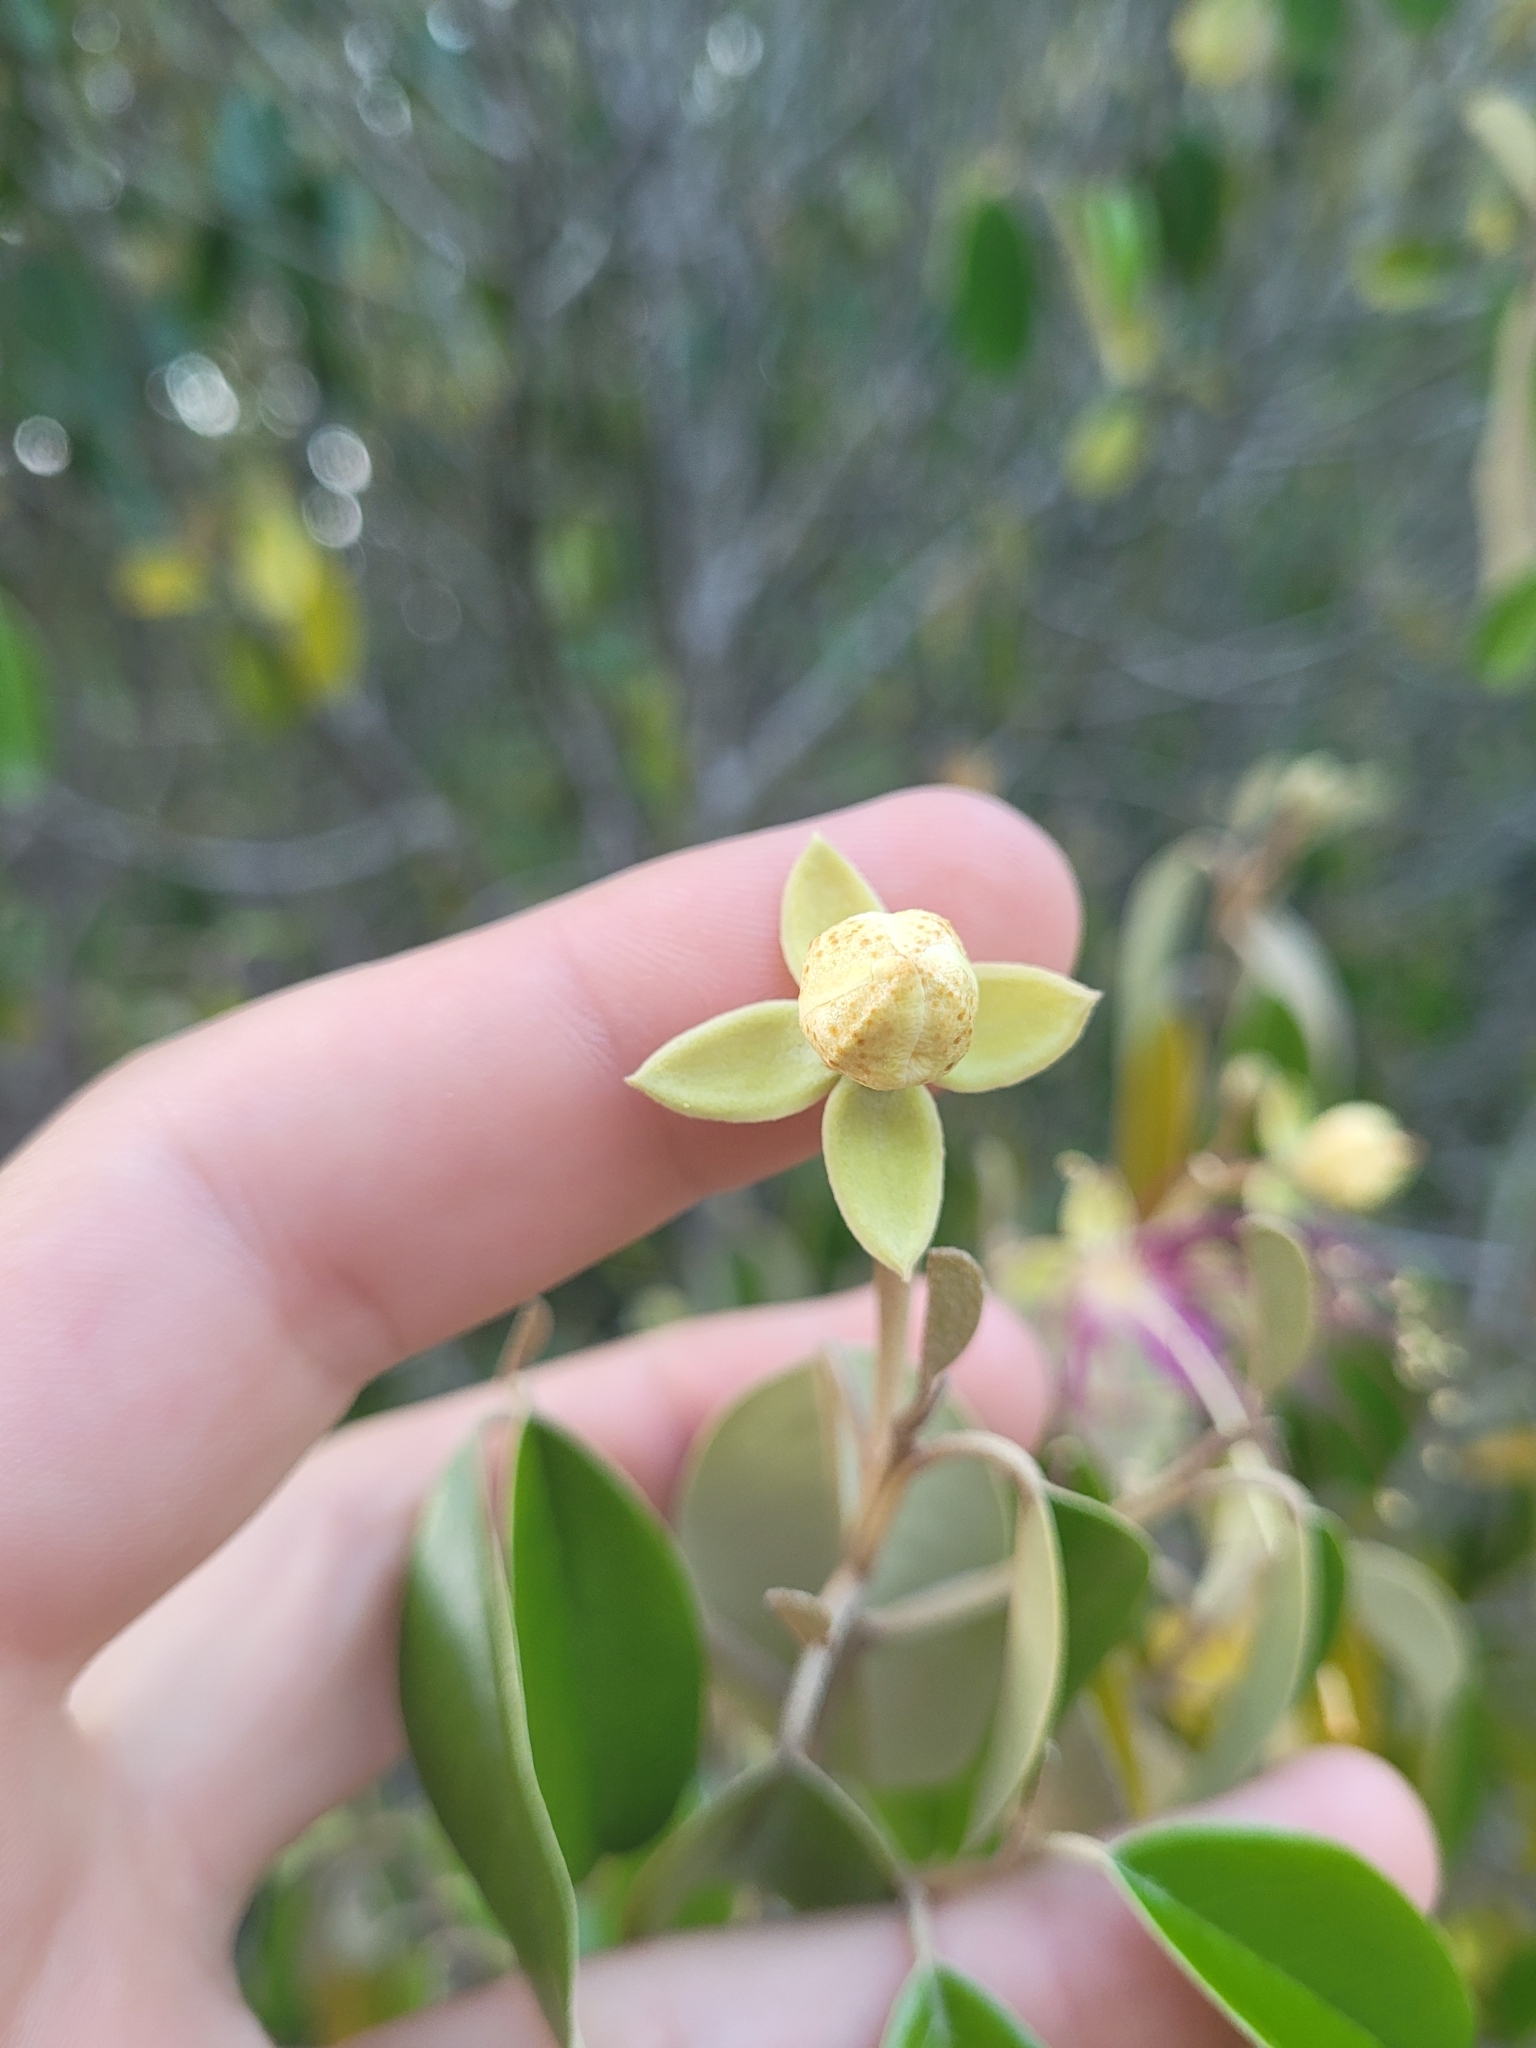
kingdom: Plantae
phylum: Tracheophyta
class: Magnoliopsida
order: Brassicales
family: Capparaceae
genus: Quadrella
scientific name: Quadrella cynophallophora
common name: Black willow
